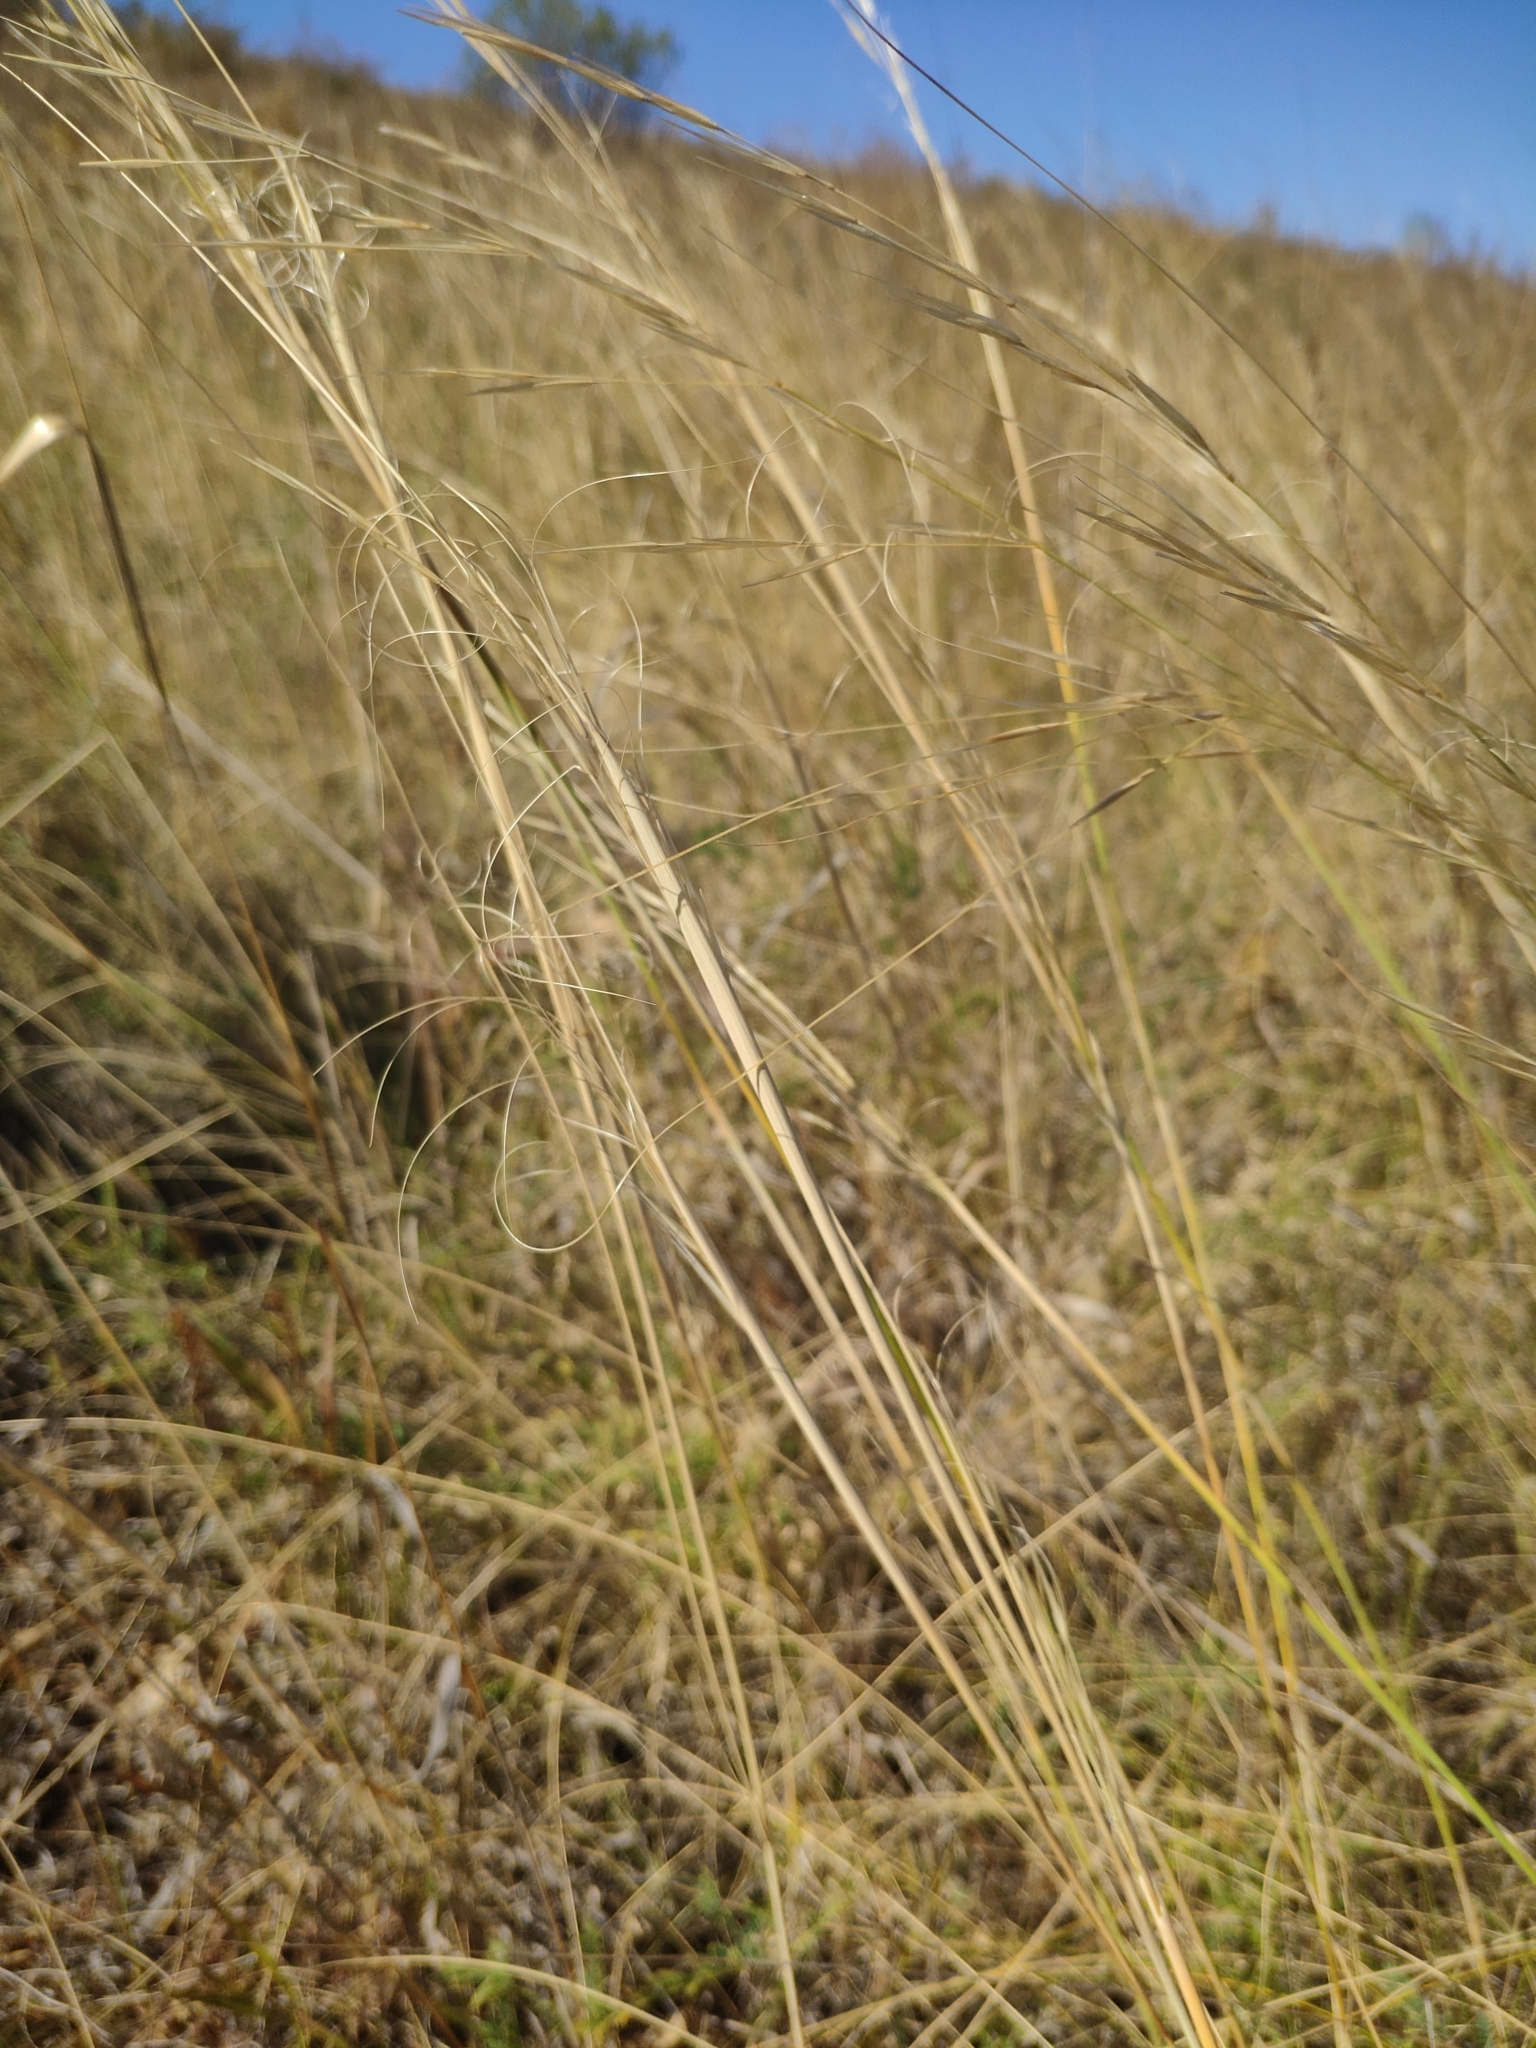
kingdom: Plantae
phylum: Tracheophyta
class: Liliopsida
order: Poales
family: Poaceae
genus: Stipa
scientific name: Stipa capillata
